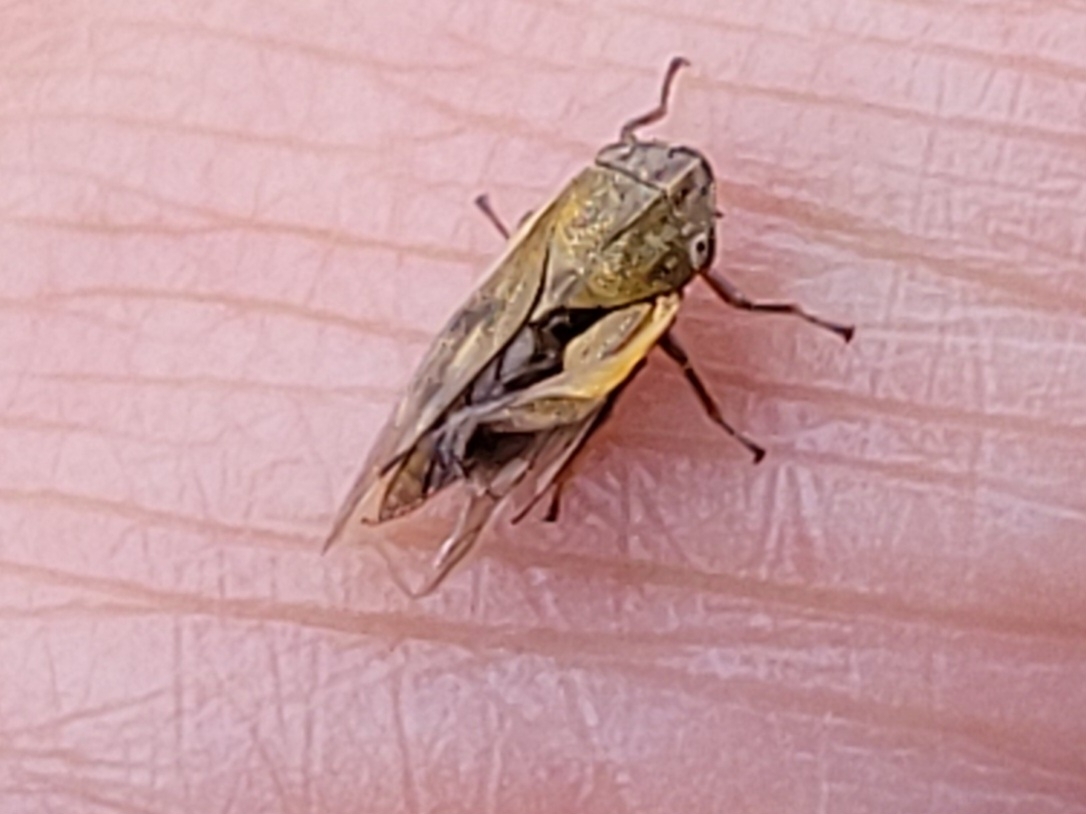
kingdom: Animalia
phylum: Arthropoda
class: Insecta
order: Hemiptera
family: Aphrophoridae
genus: Omalophora
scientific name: Omalophora pectoralis
